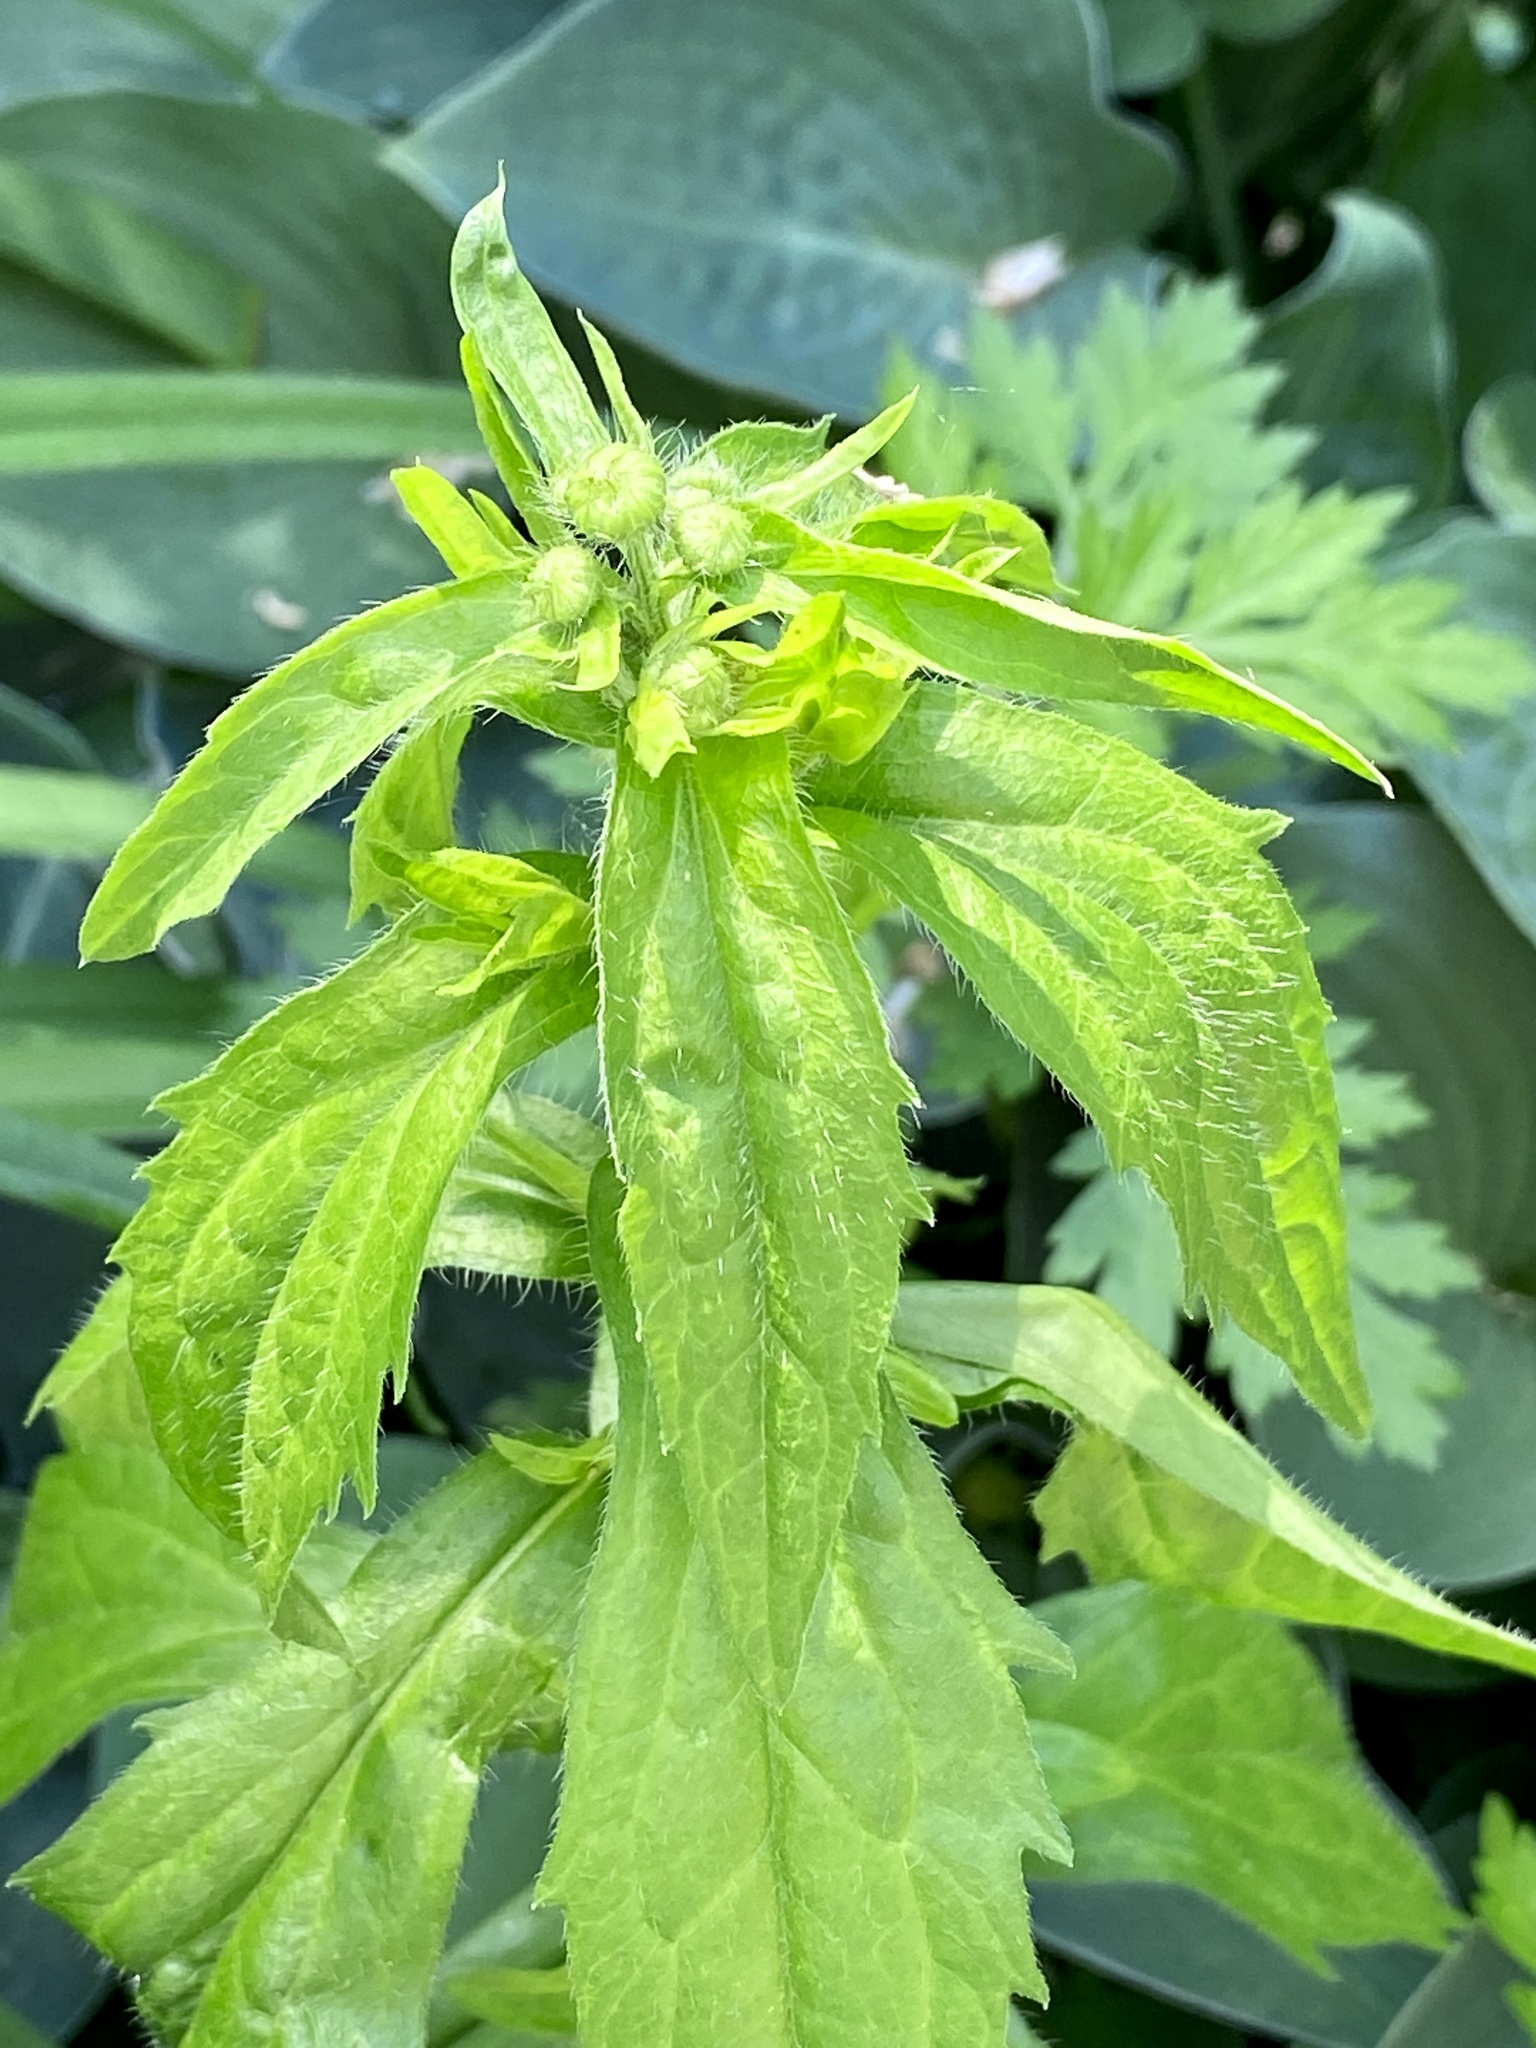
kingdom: Plantae
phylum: Tracheophyta
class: Magnoliopsida
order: Asterales
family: Asteraceae
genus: Erigeron
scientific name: Erigeron annuus
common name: Tall fleabane
